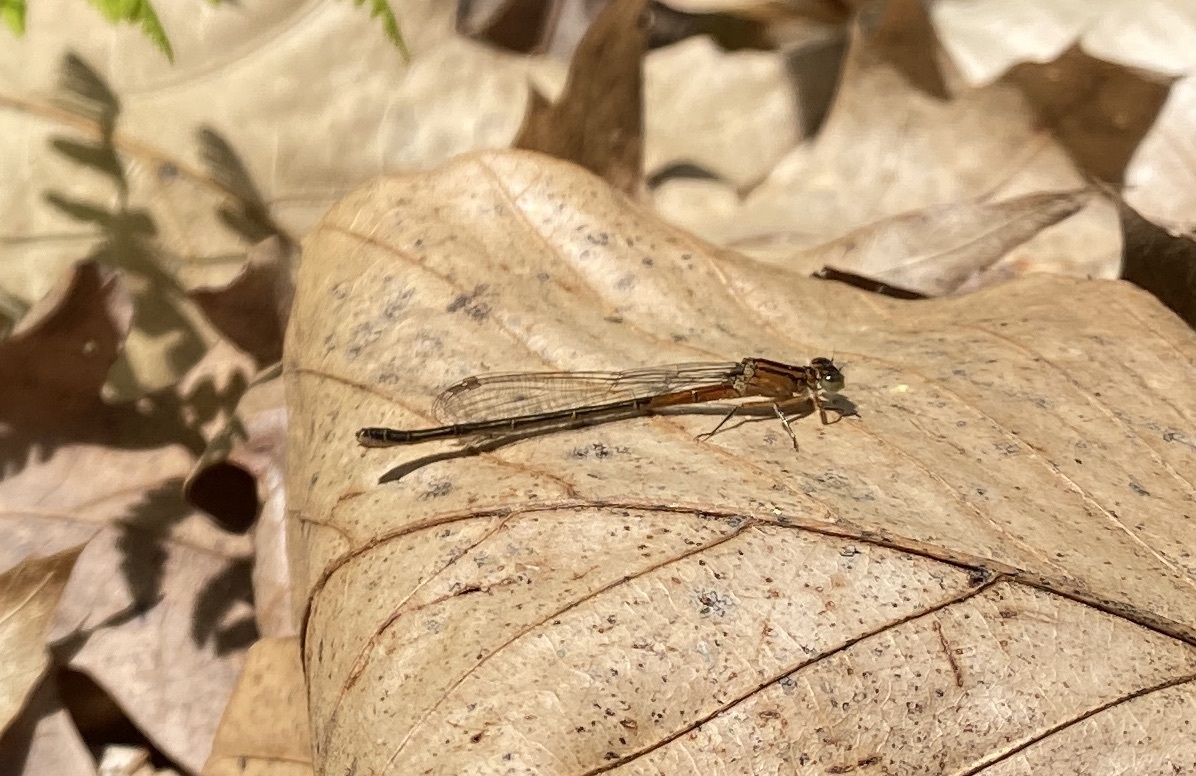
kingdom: Animalia
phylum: Arthropoda
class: Insecta
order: Odonata
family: Coenagrionidae
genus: Ischnura
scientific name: Ischnura verticalis
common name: Eastern forktail
